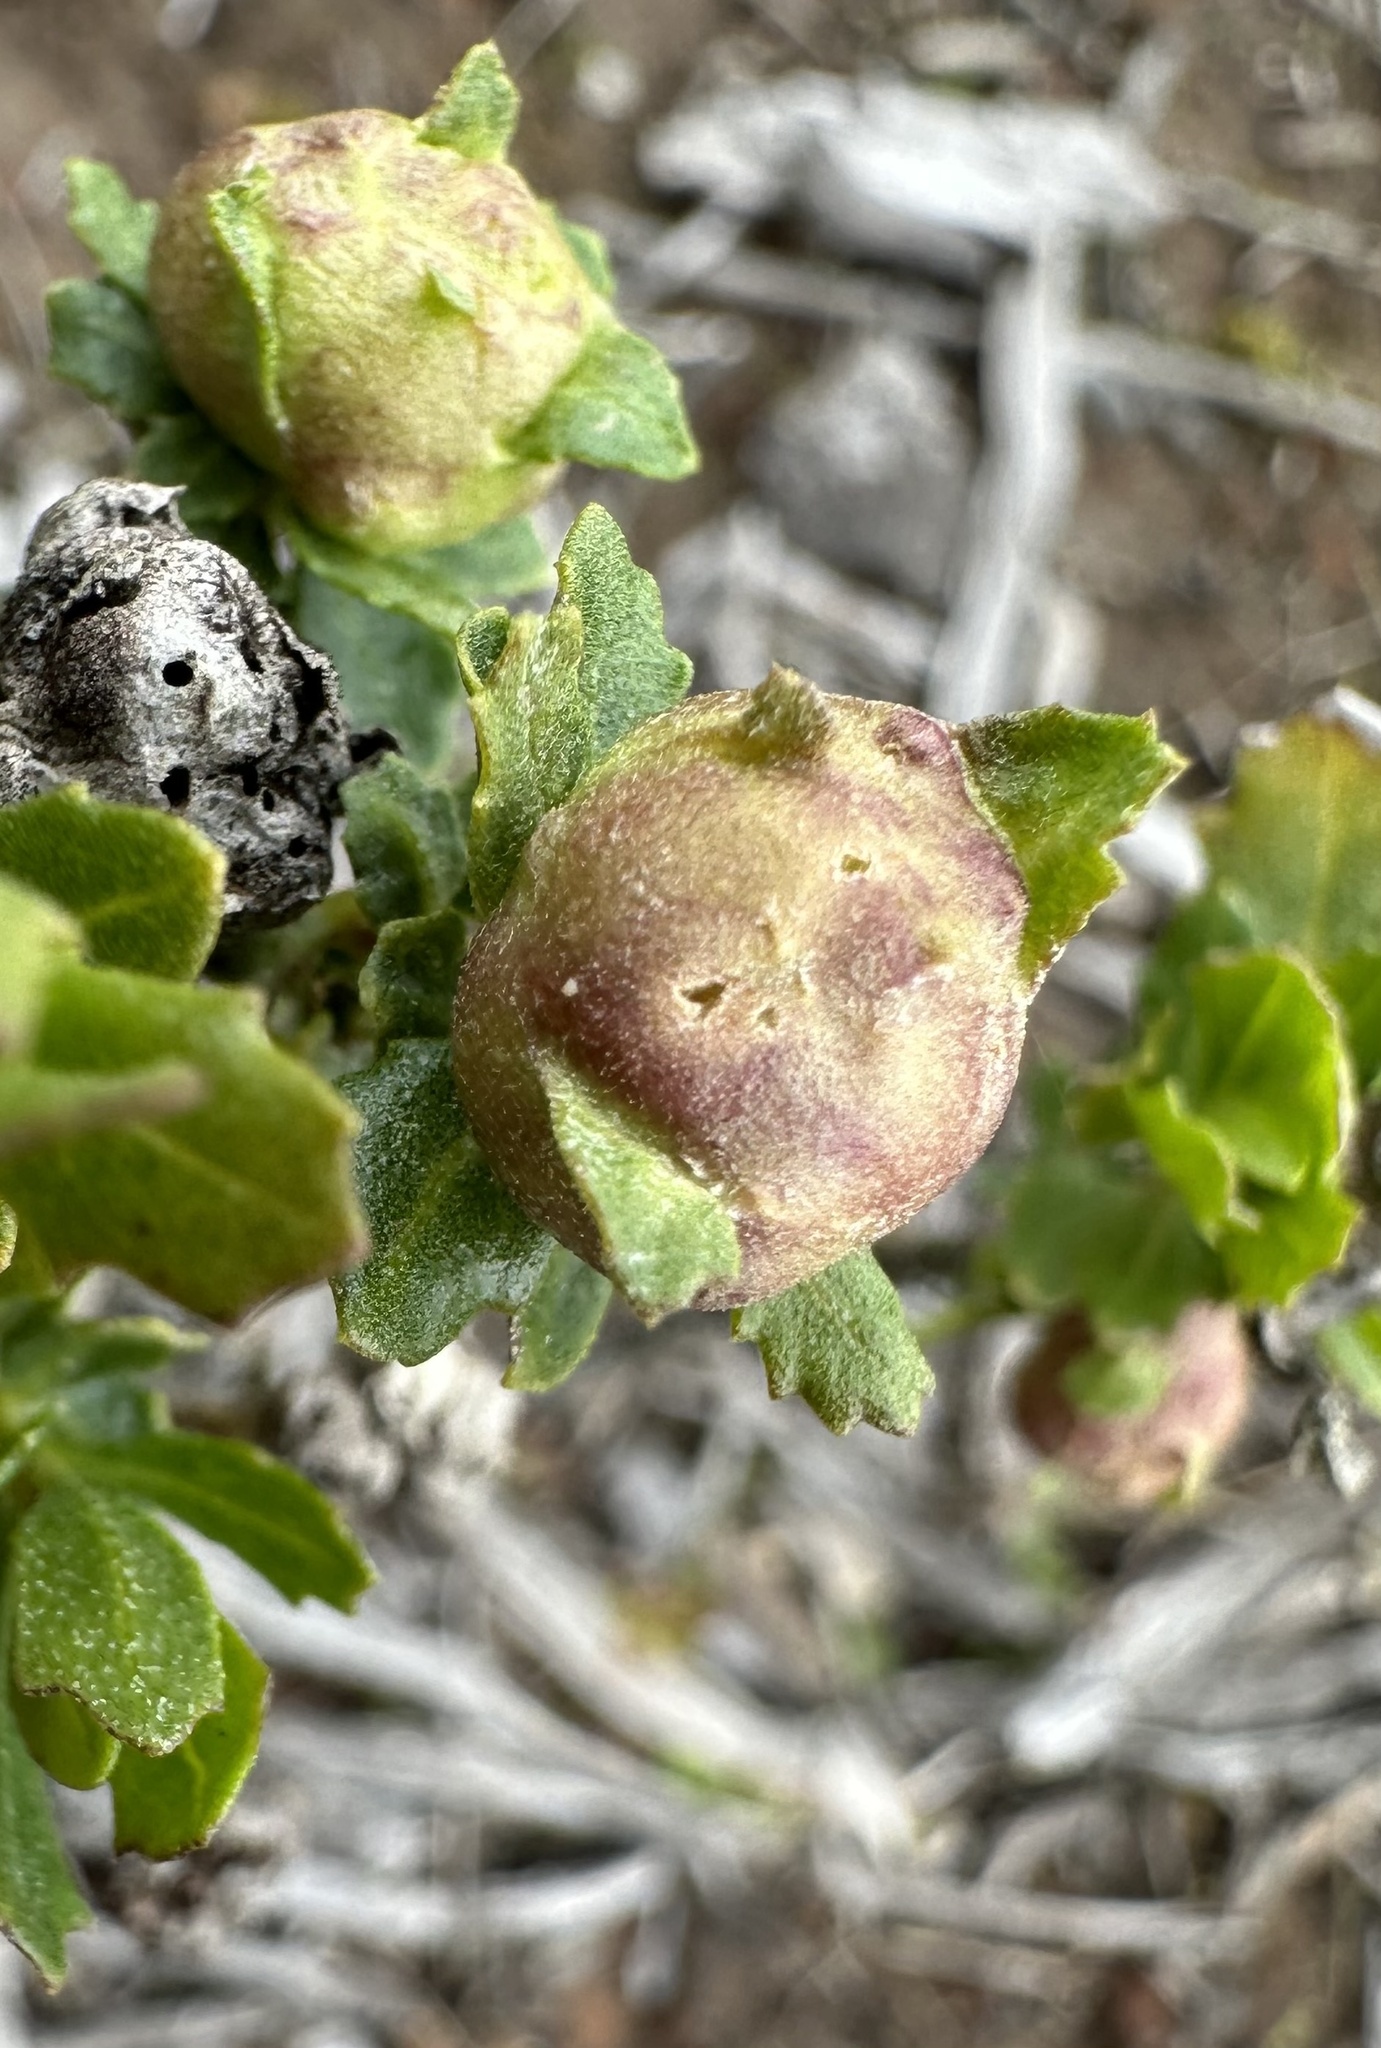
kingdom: Animalia
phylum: Arthropoda
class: Insecta
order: Diptera
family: Cecidomyiidae
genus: Rhopalomyia
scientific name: Rhopalomyia californica
